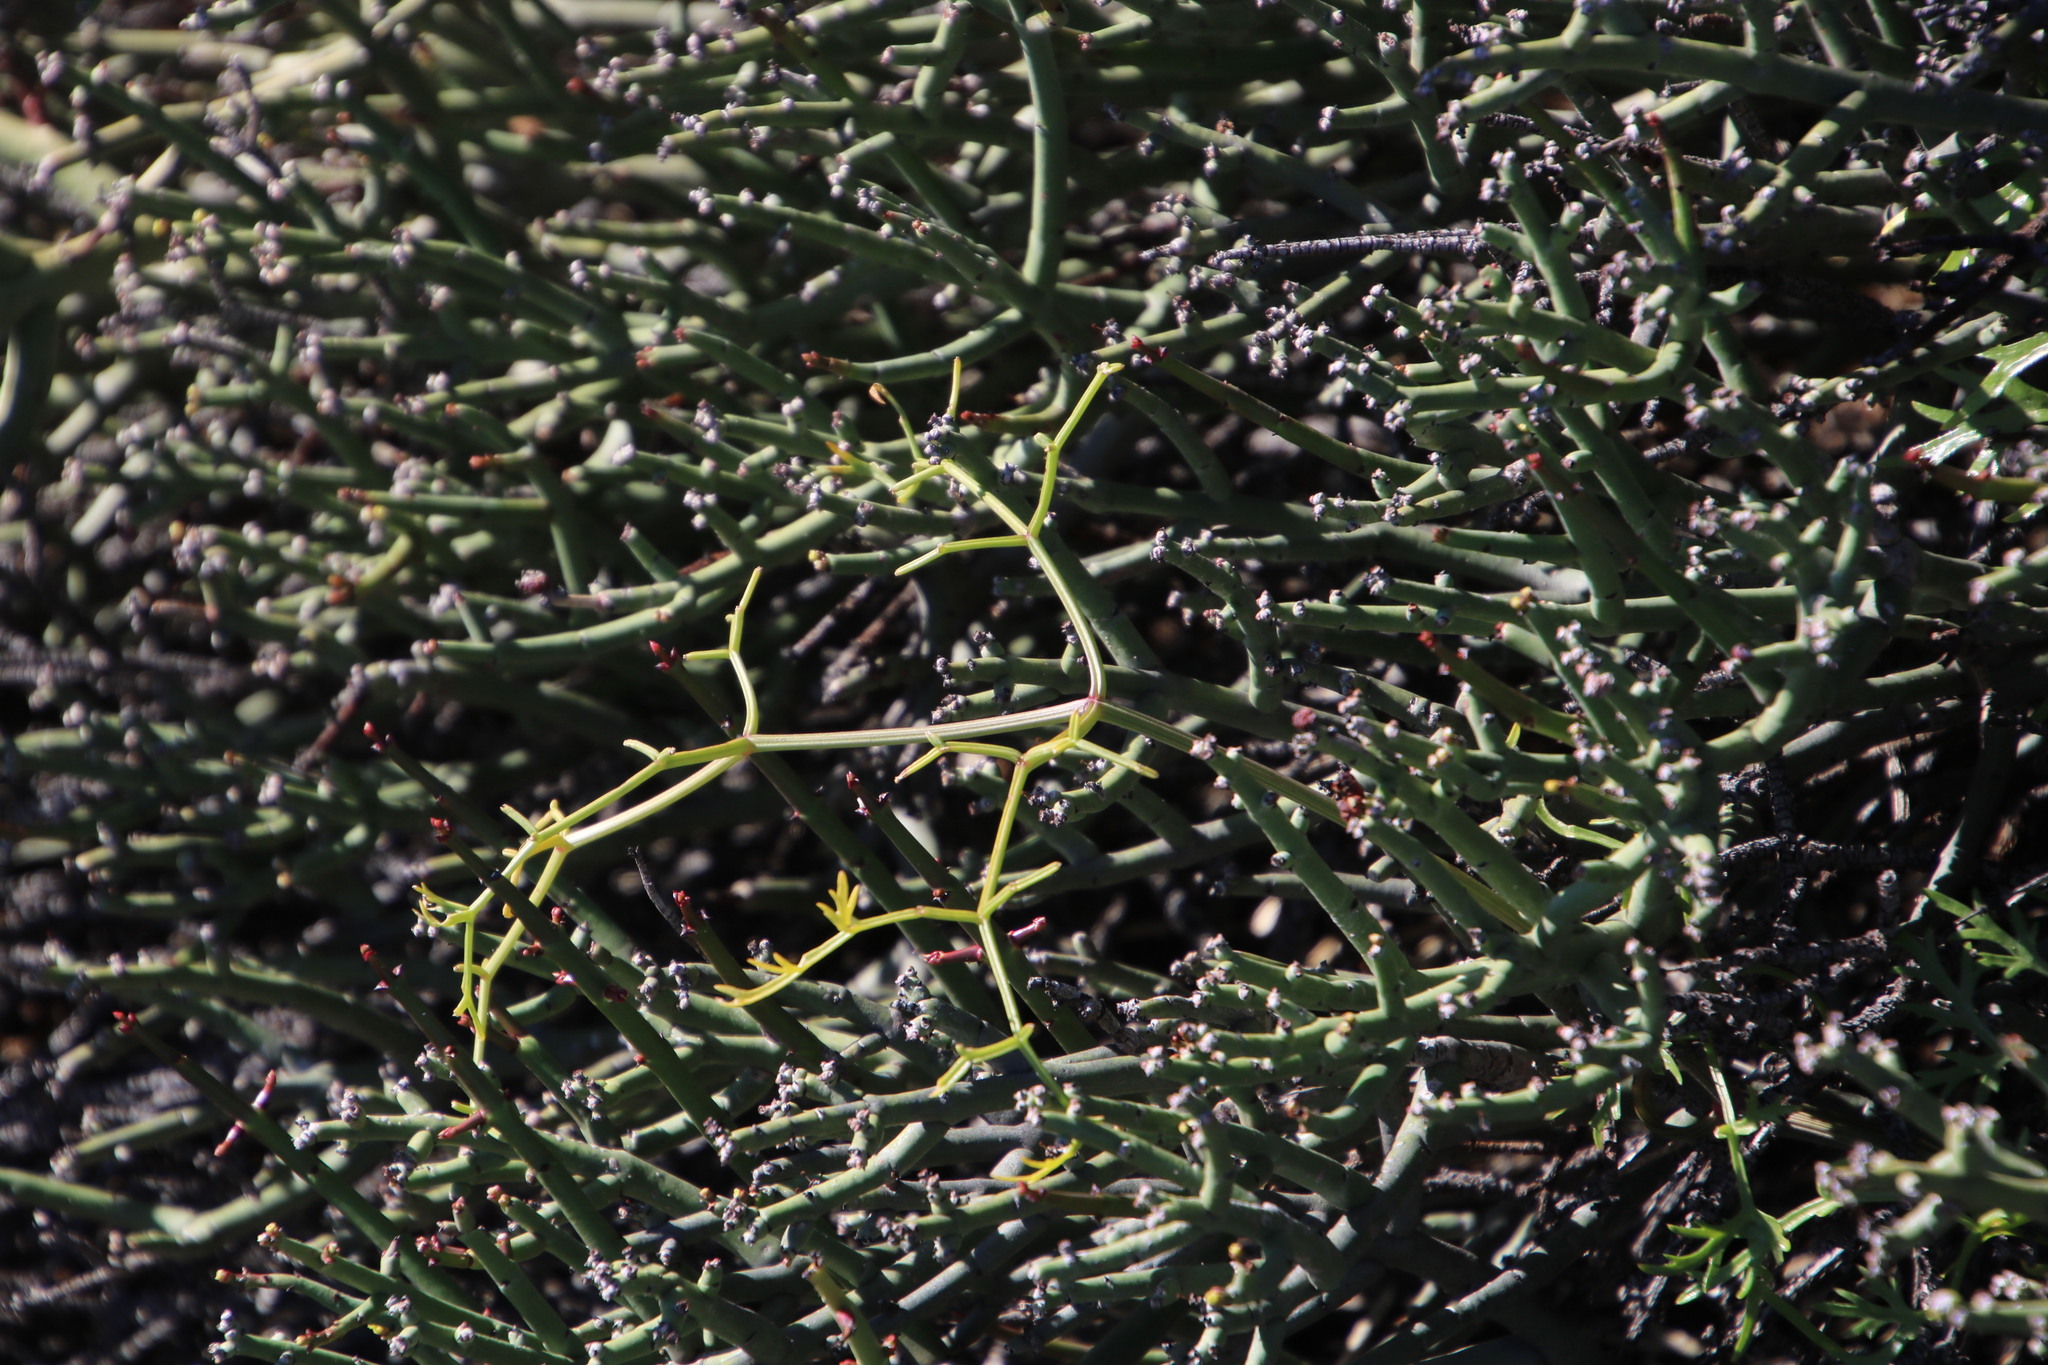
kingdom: Plantae
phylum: Tracheophyta
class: Magnoliopsida
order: Apiales
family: Apiaceae
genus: Cynorhiza
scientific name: Cynorhiza typica
